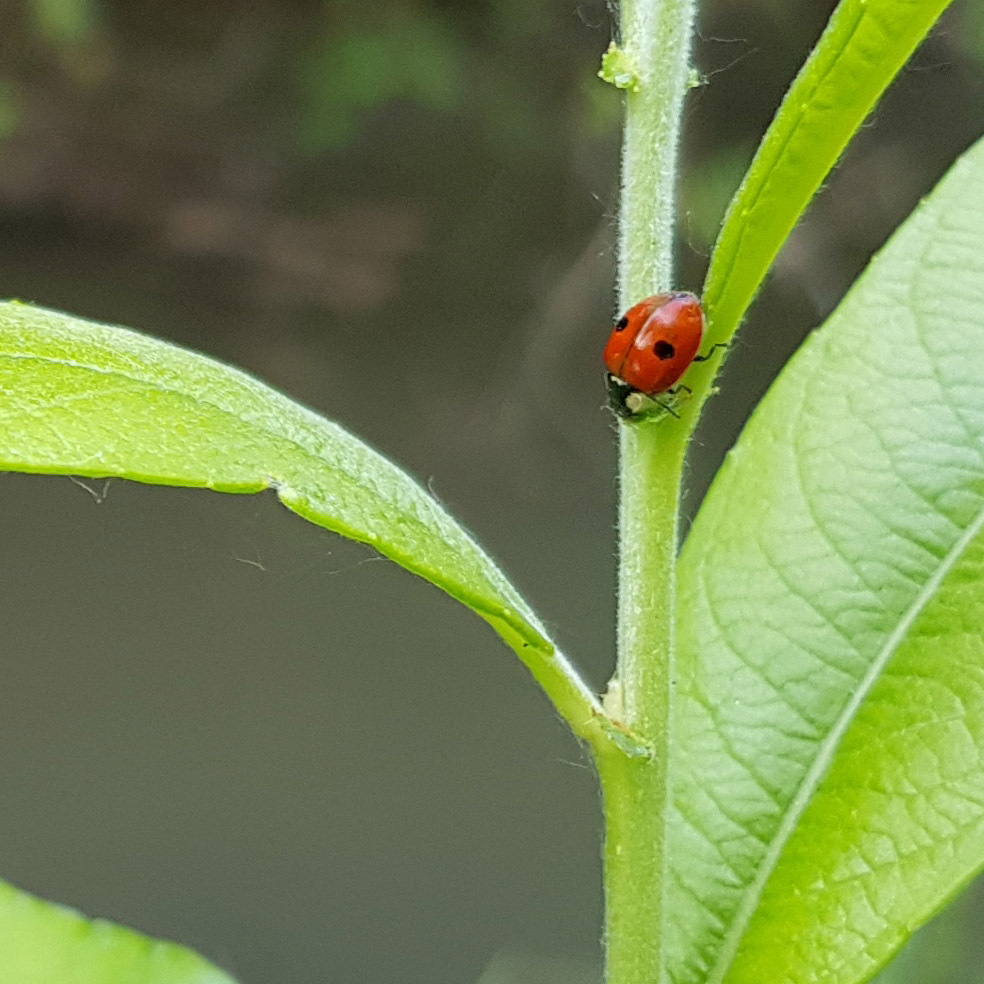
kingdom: Animalia
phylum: Arthropoda
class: Insecta
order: Coleoptera
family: Coccinellidae
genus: Adalia
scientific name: Adalia bipunctata
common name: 2-spot ladybird
